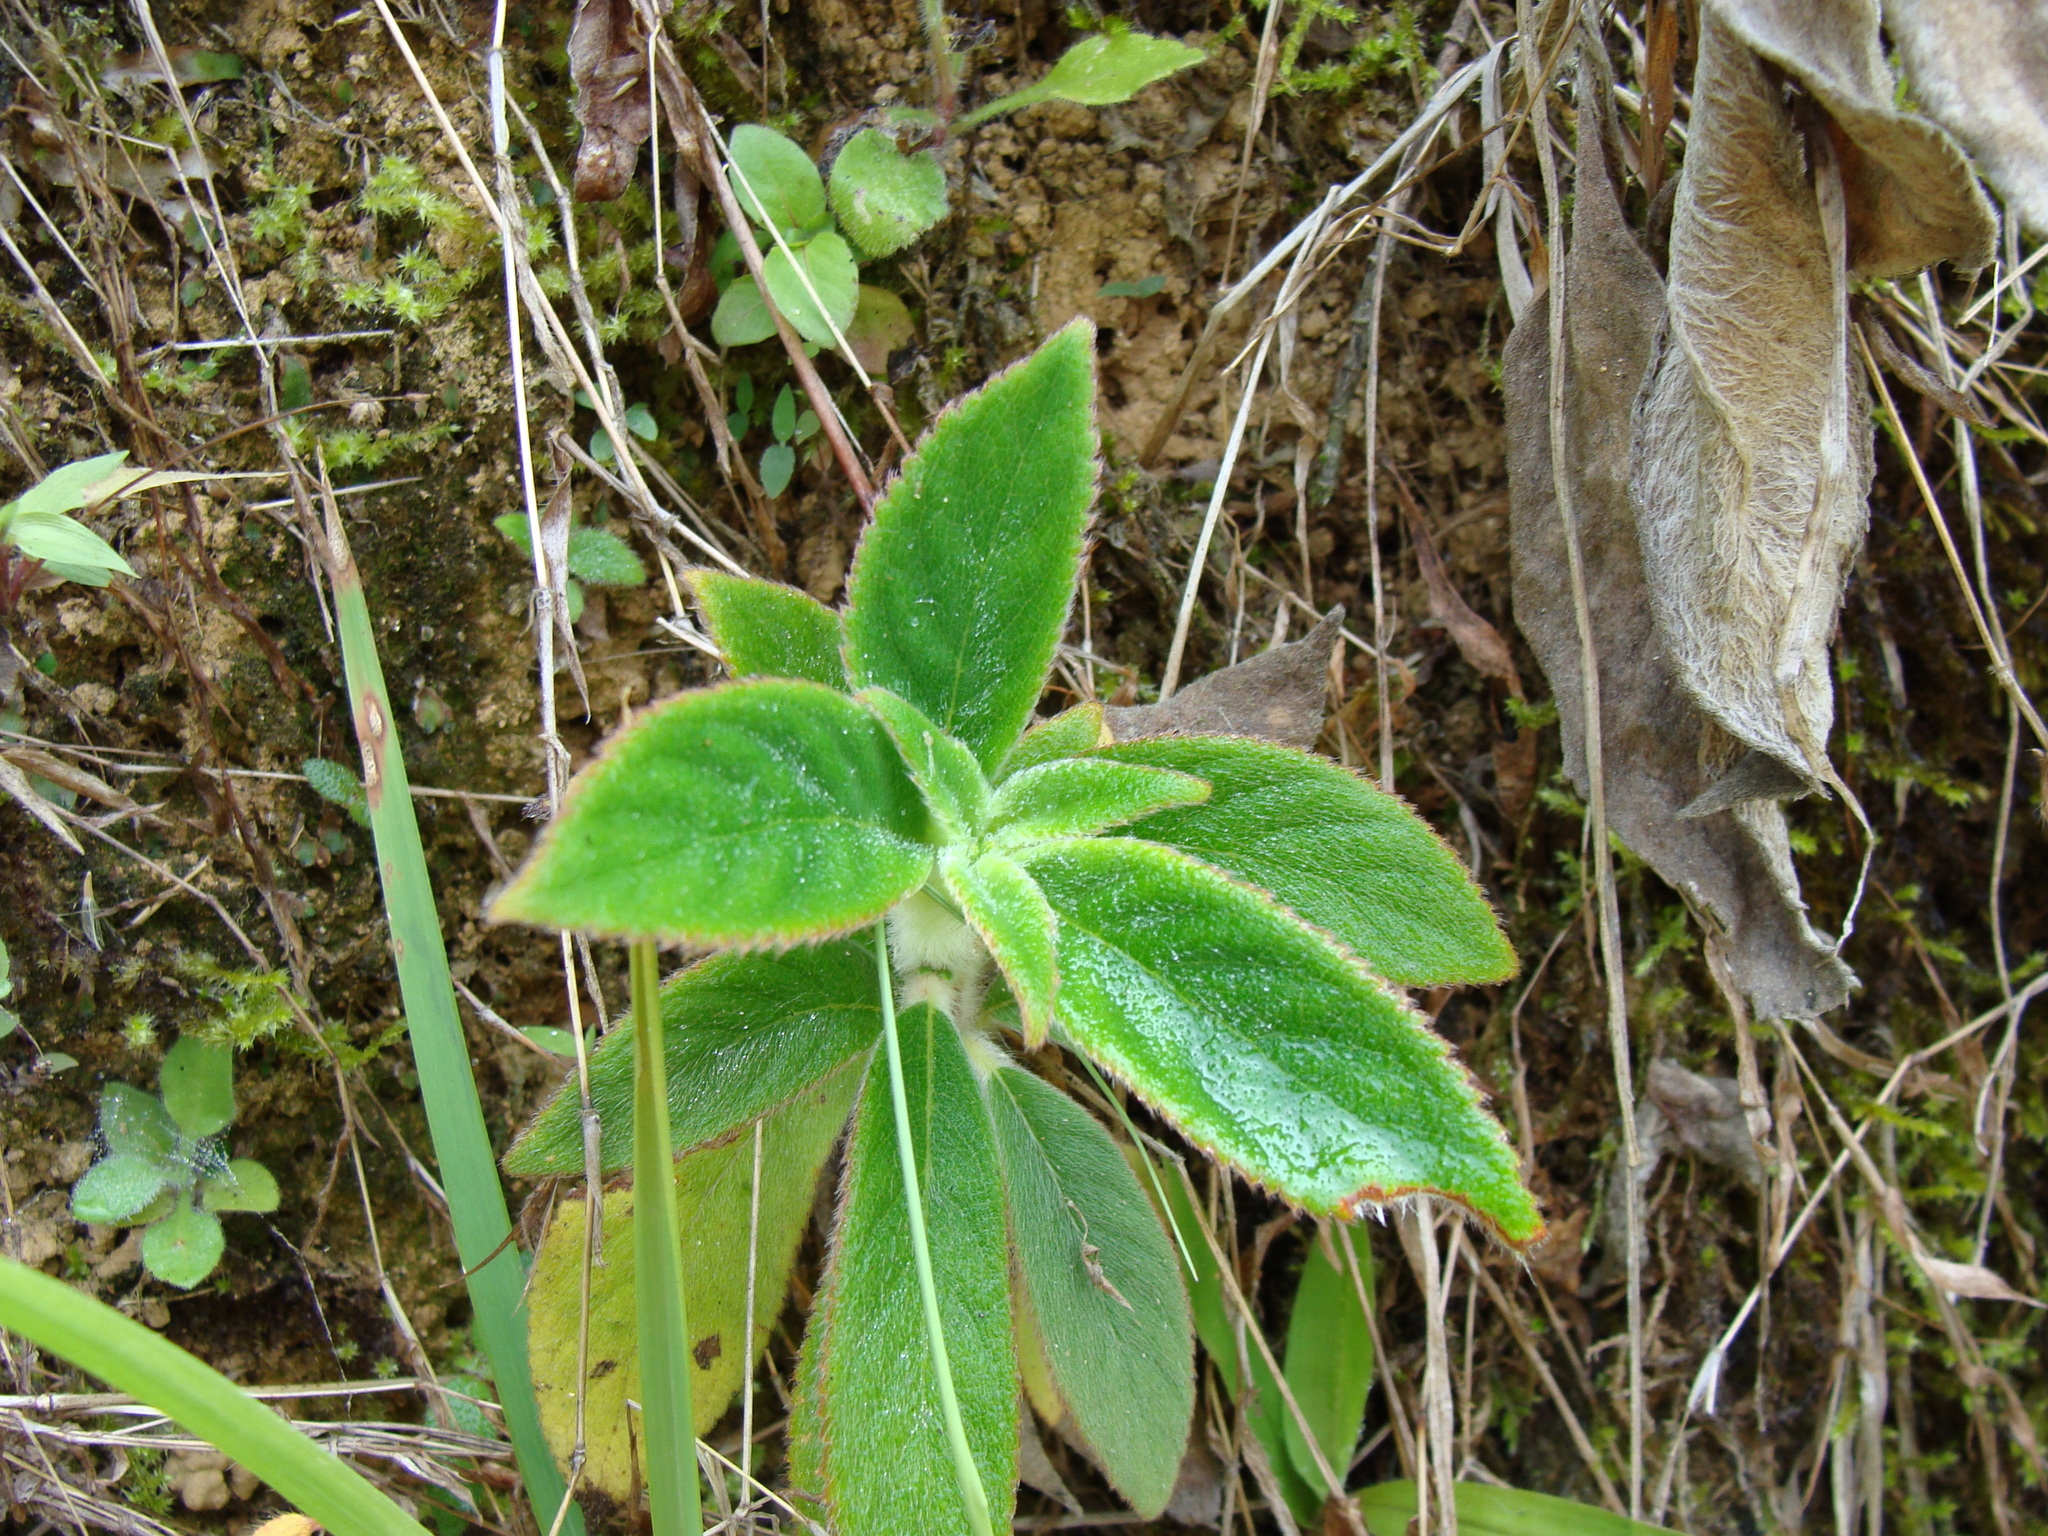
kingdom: Plantae
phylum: Tracheophyta
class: Magnoliopsida
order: Lamiales
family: Gesneriaceae
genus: Kohleria
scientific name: Kohleria spicata
